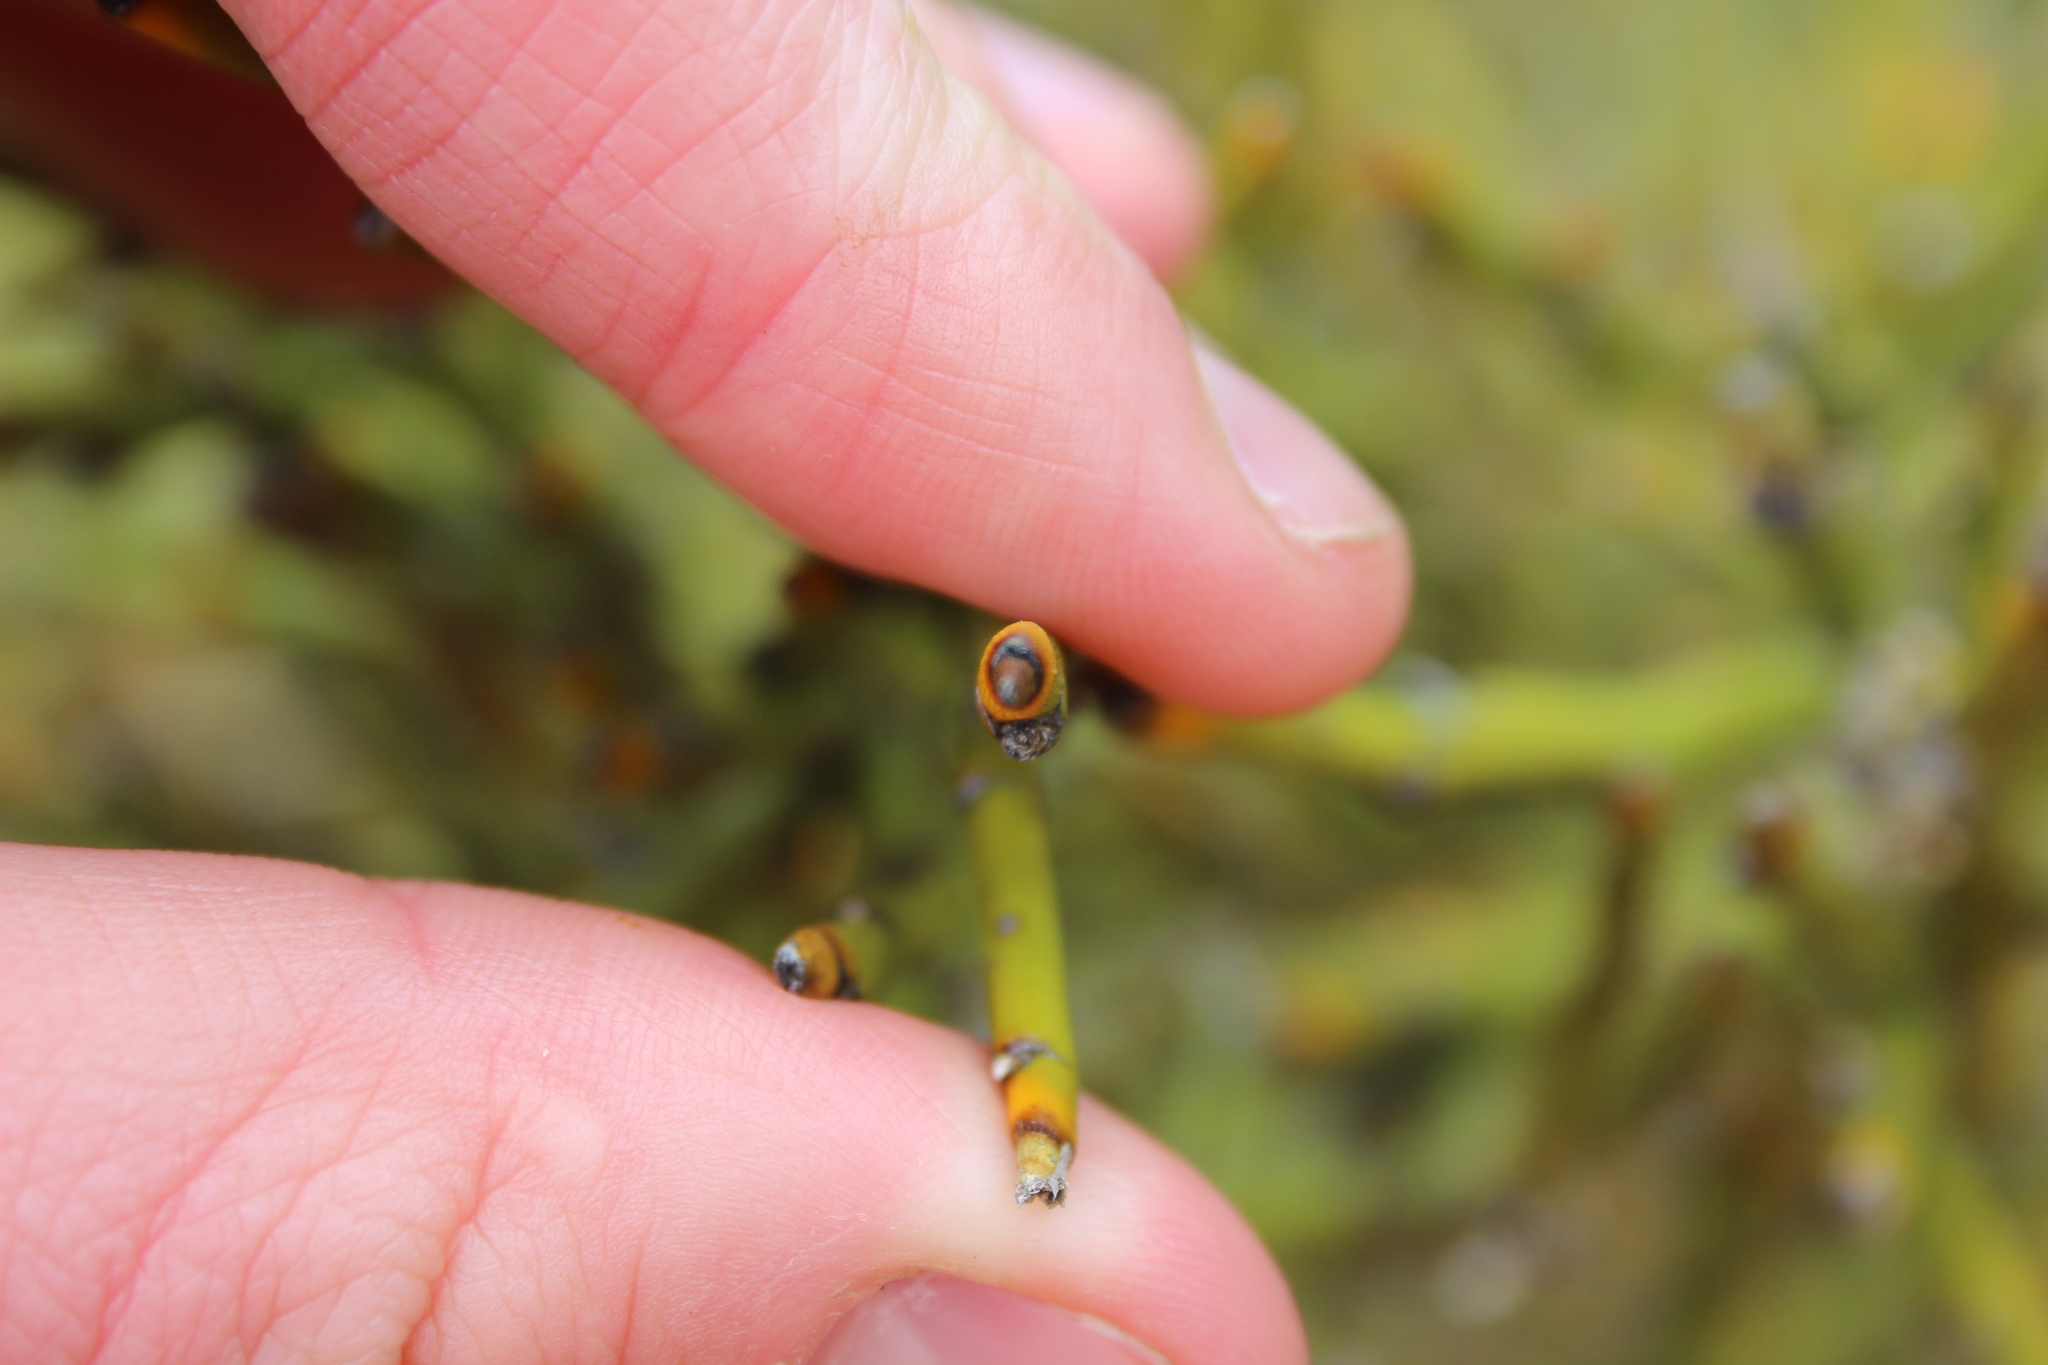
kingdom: Plantae
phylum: Tracheophyta
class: Magnoliopsida
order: Fabales
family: Fabaceae
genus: Carmichaelia
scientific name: Carmichaelia petriei
